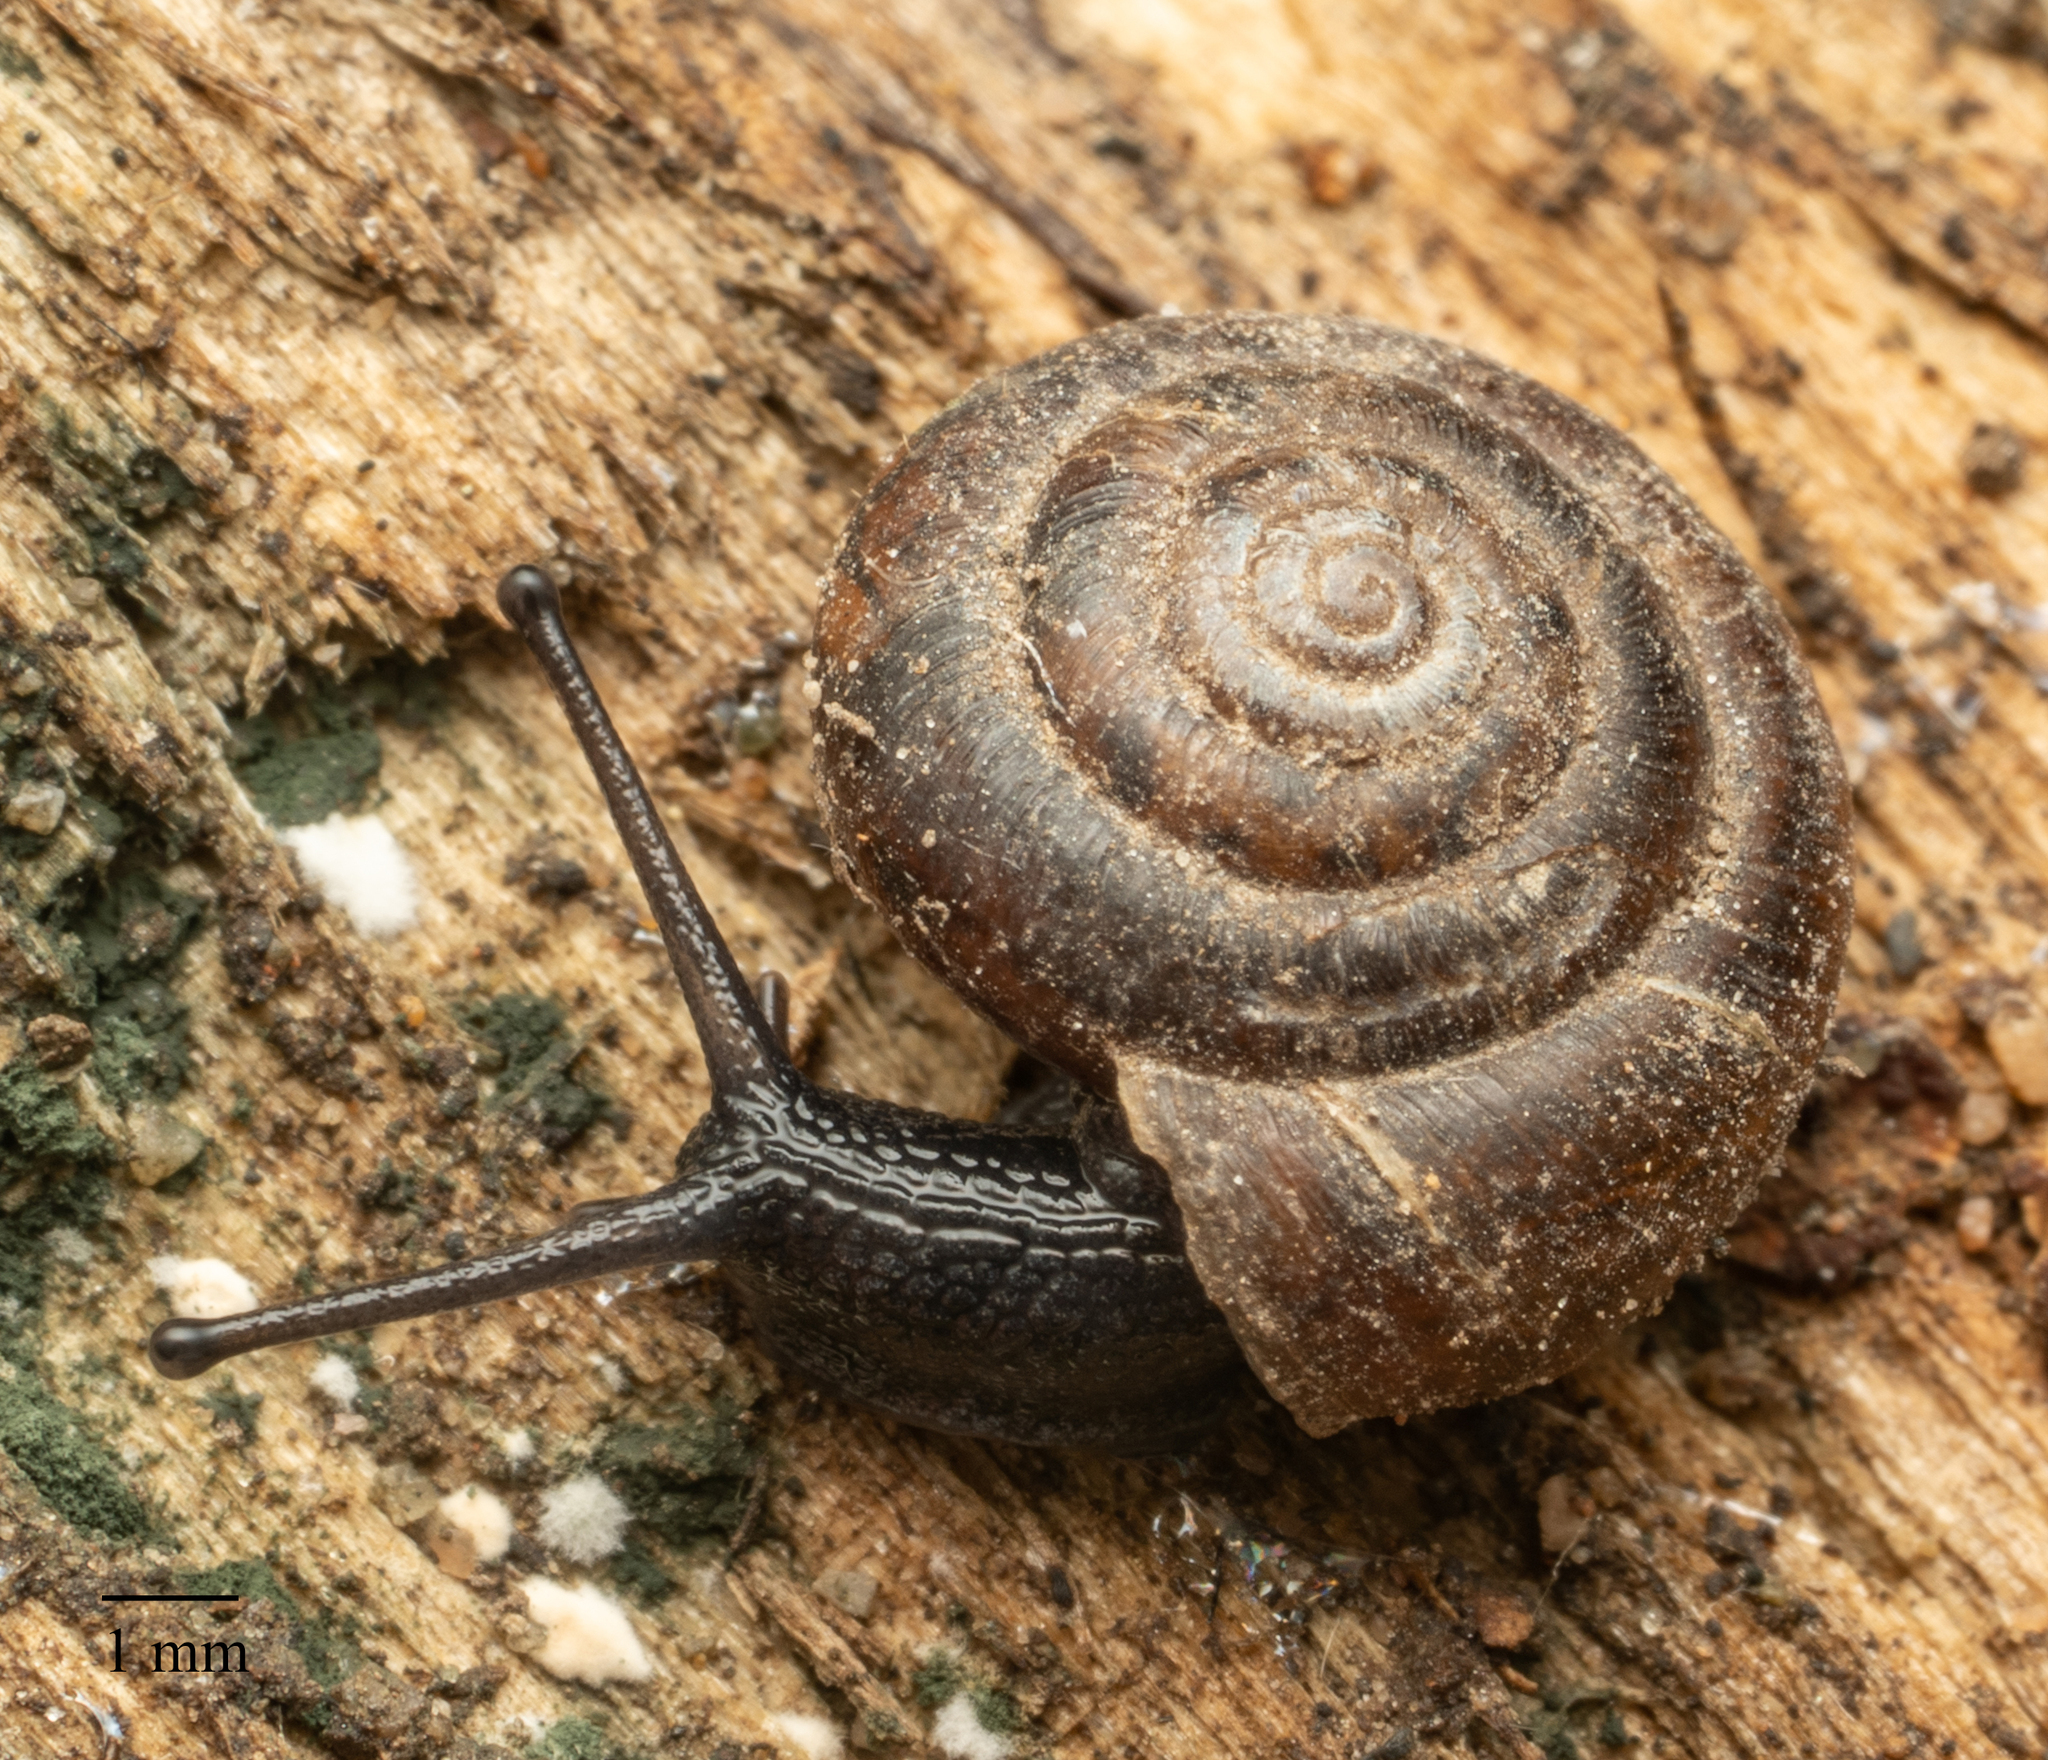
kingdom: Animalia
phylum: Mollusca
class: Gastropoda
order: Stylommatophora
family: Hygromiidae
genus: Trochulus
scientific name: Trochulus hispidus
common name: Hairy snail
